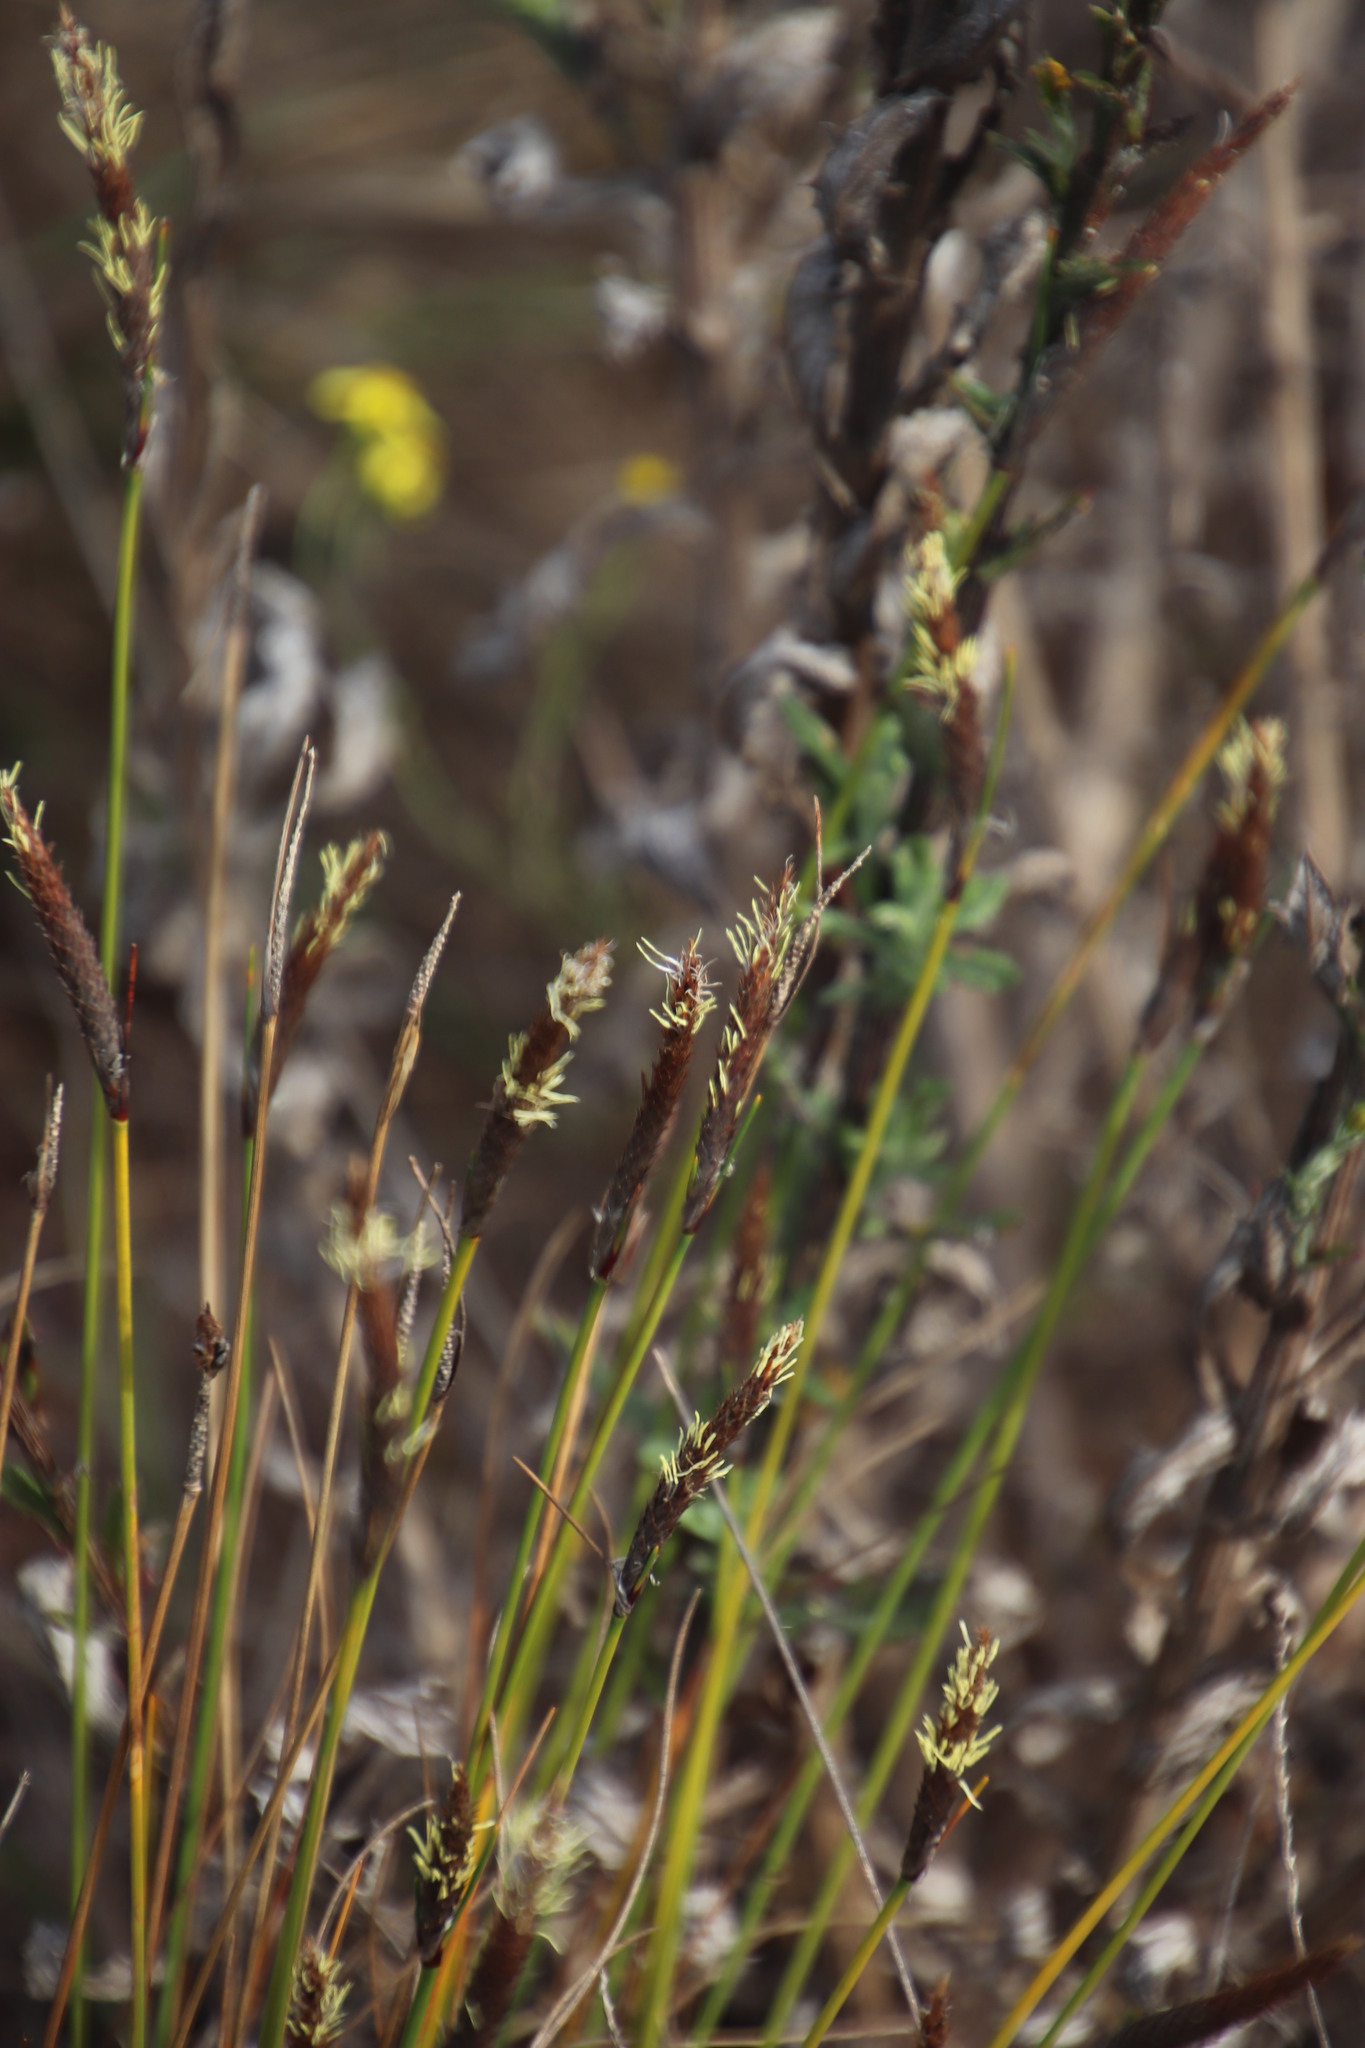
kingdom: Plantae
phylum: Tracheophyta
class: Liliopsida
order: Poales
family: Cyperaceae
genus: Ficinia
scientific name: Ficinia deusta
